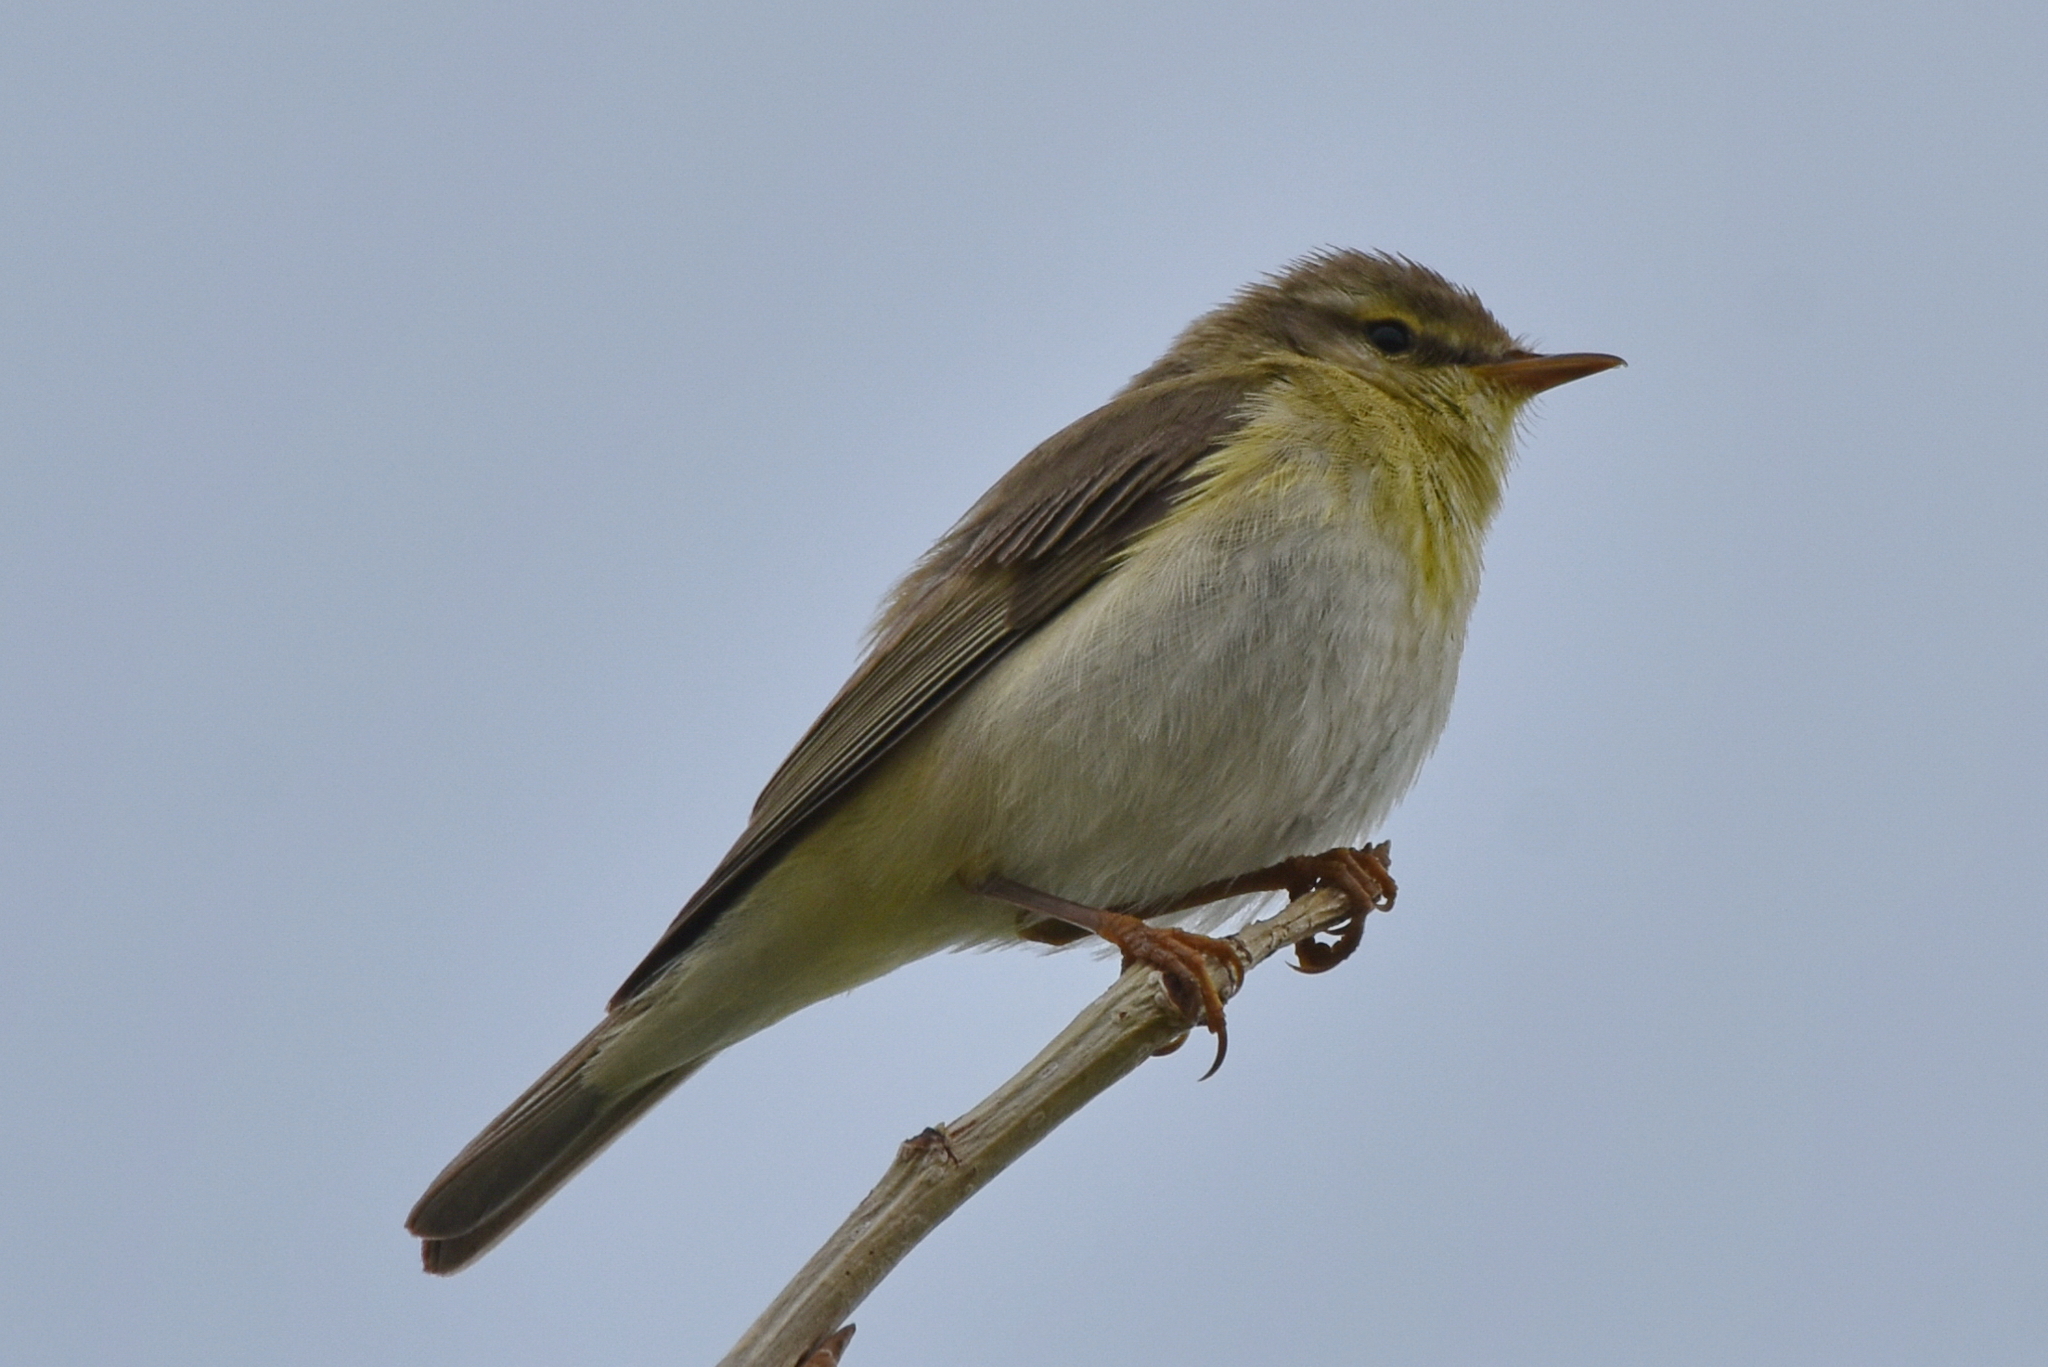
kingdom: Animalia
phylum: Chordata
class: Aves
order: Passeriformes
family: Phylloscopidae
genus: Phylloscopus
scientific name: Phylloscopus trochilus
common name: Willow warbler
